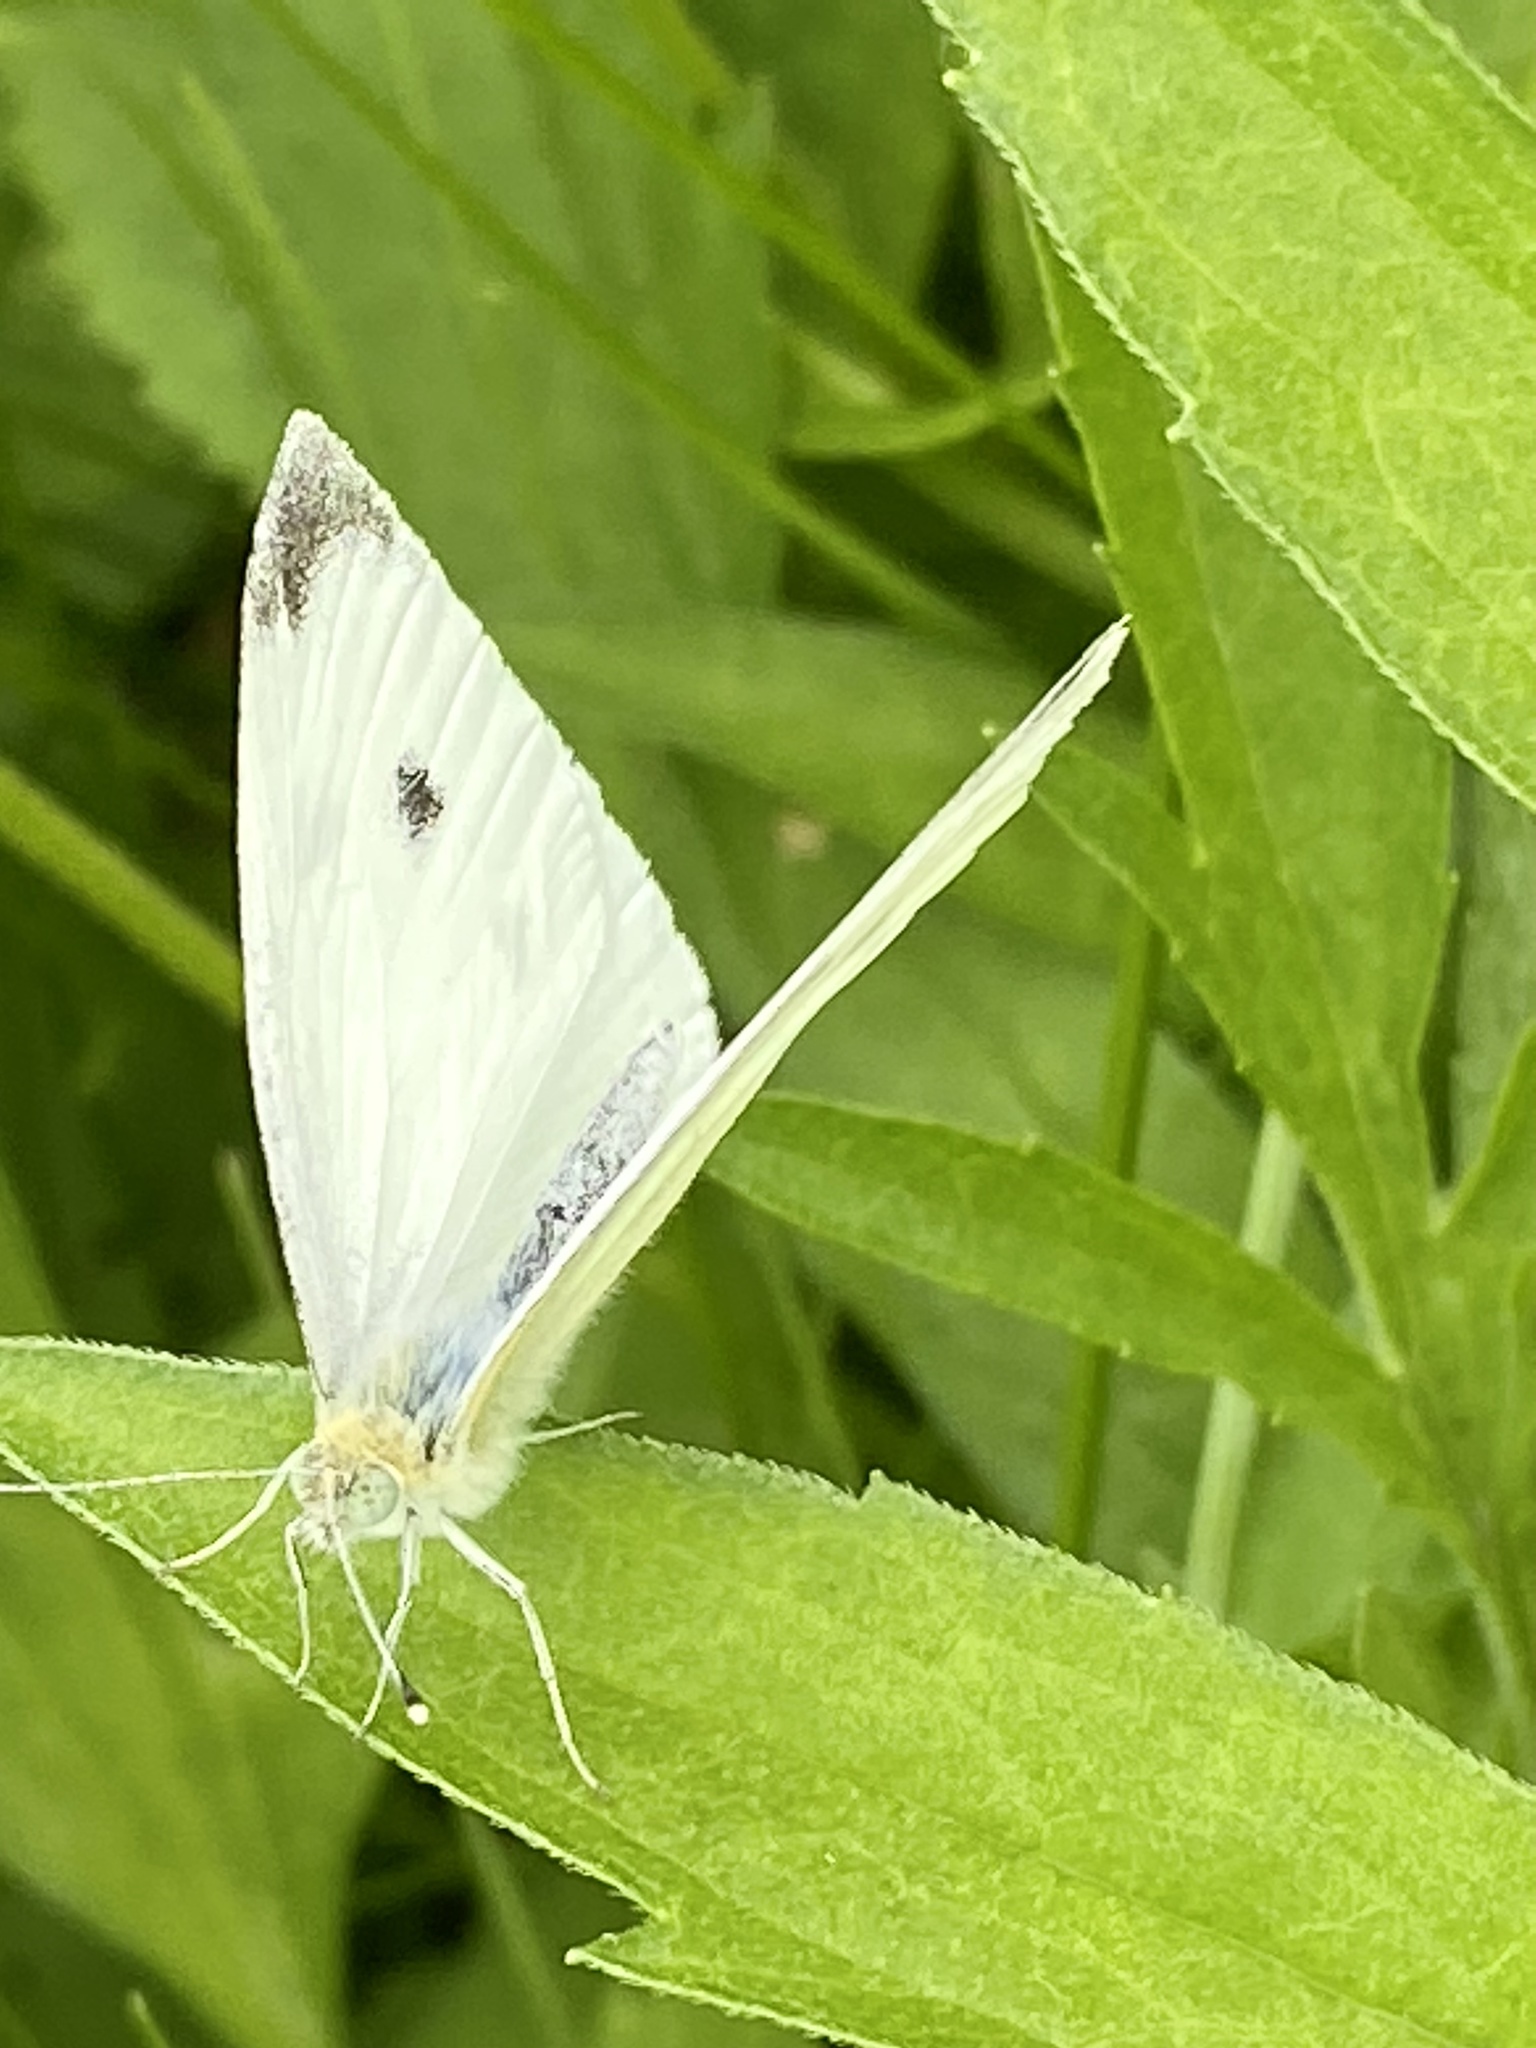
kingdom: Animalia
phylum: Arthropoda
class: Insecta
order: Lepidoptera
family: Pieridae
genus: Pieris
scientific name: Pieris rapae
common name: Small white
